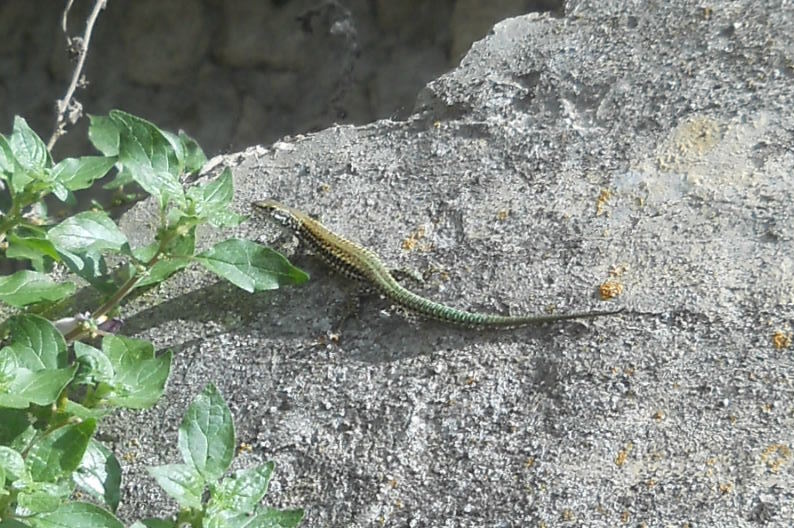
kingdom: Animalia
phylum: Chordata
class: Squamata
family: Lacertidae
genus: Podarcis
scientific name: Podarcis vaucheri
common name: Vaucher's wall lizard
